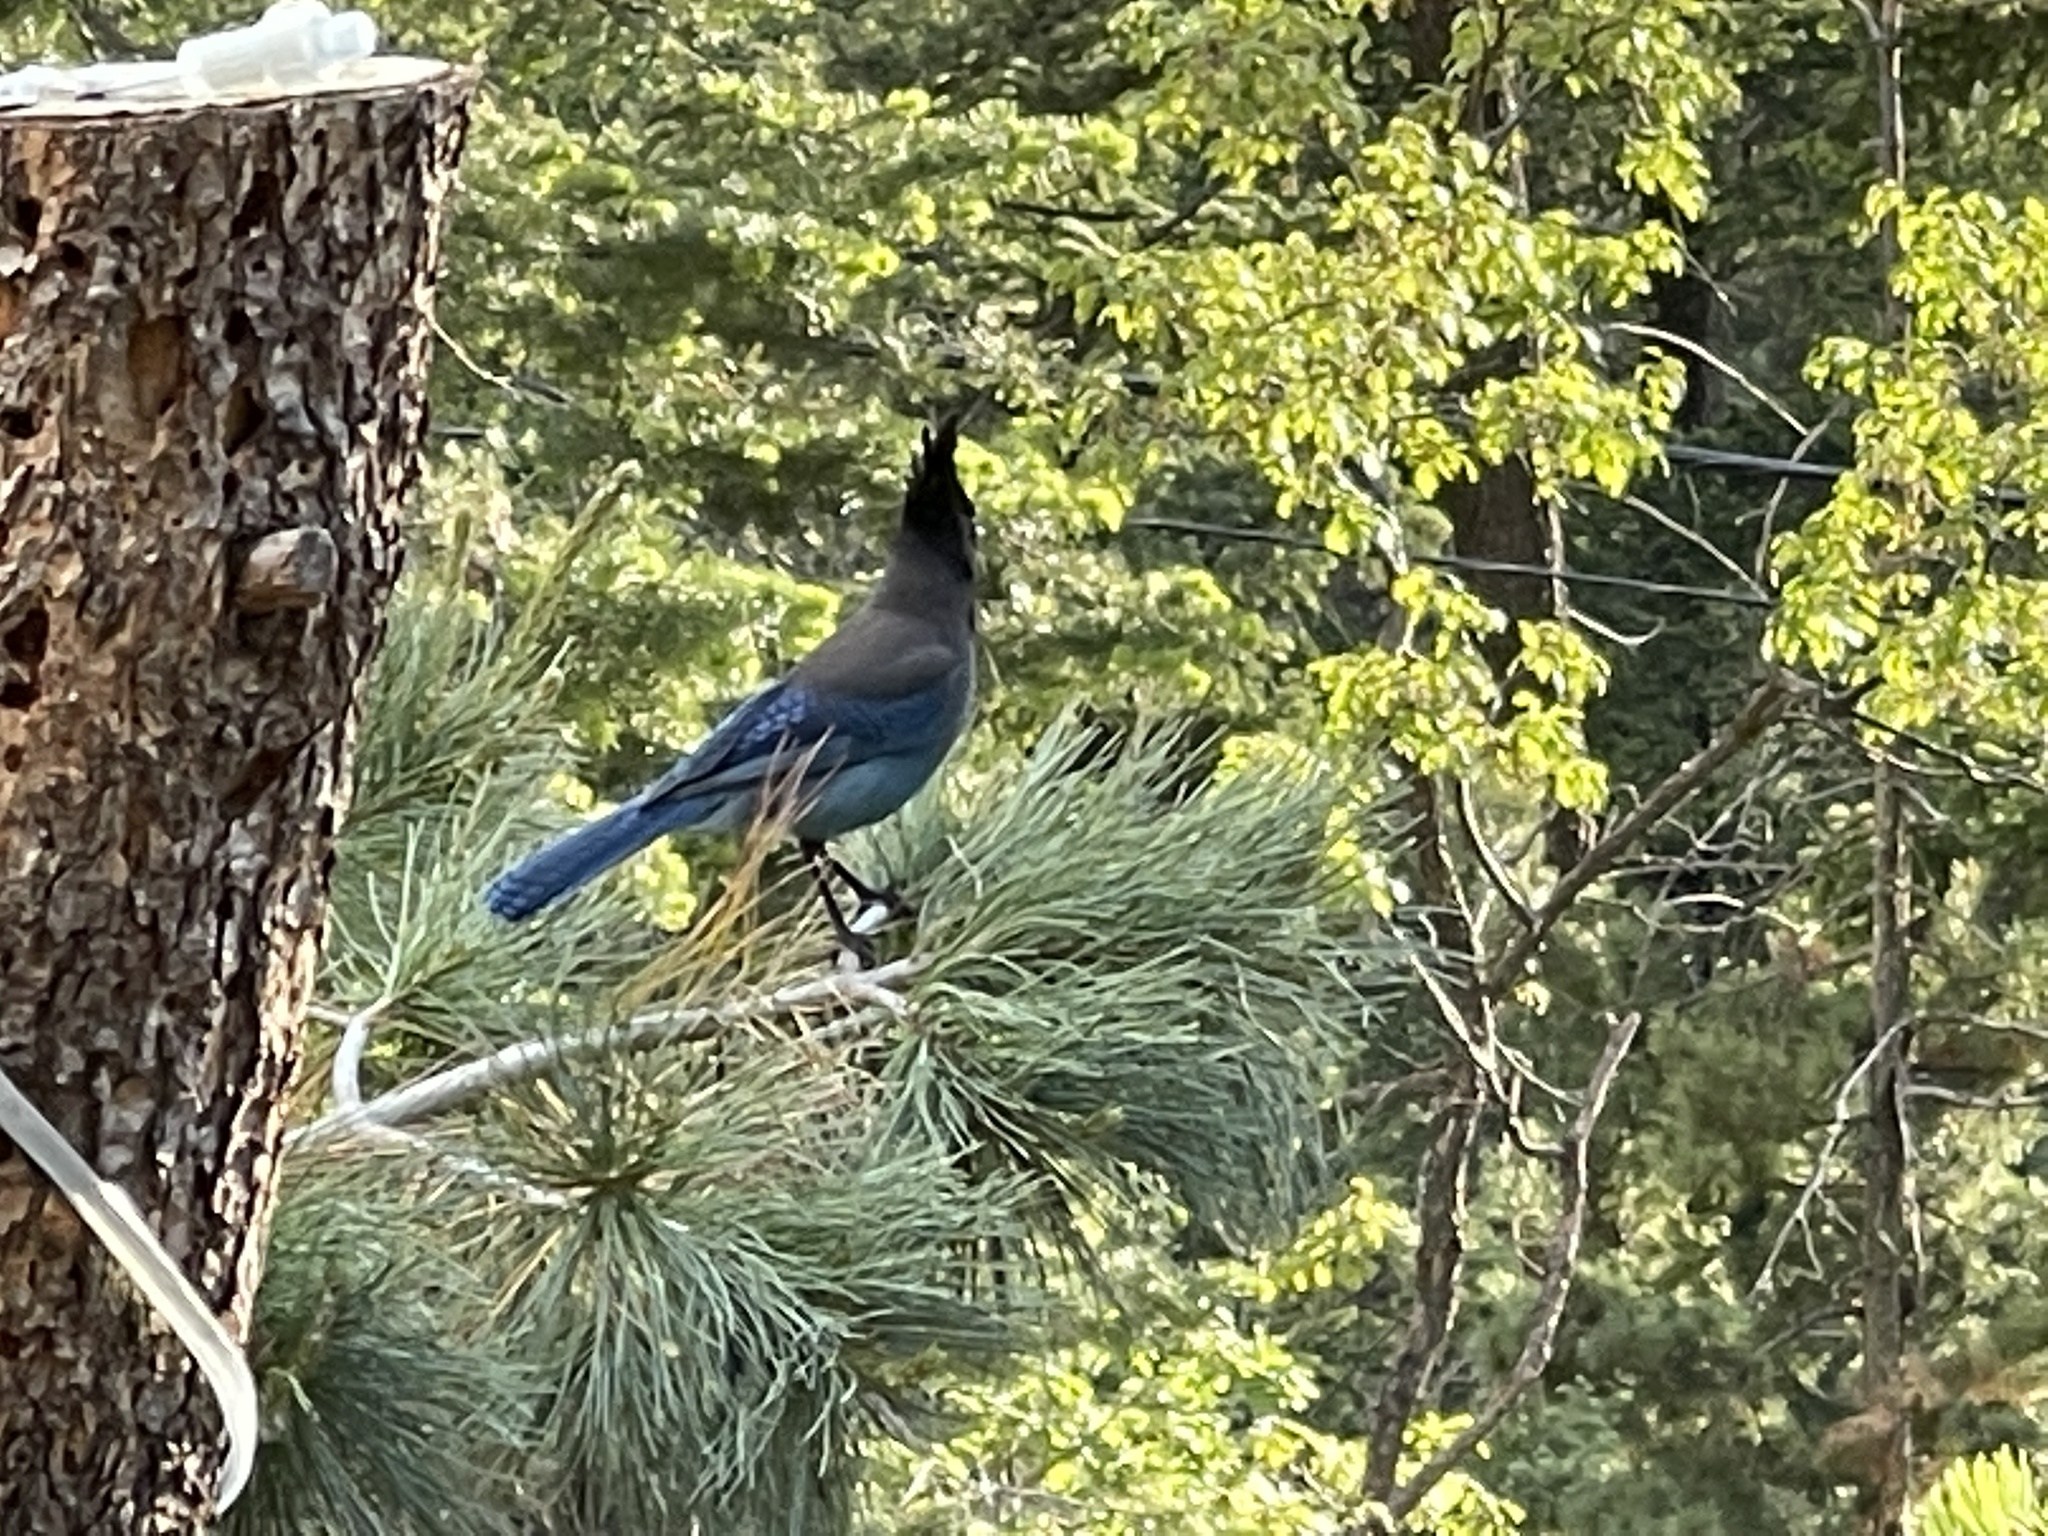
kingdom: Animalia
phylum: Chordata
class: Aves
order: Passeriformes
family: Corvidae
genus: Cyanocitta
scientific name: Cyanocitta stelleri
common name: Steller's jay
